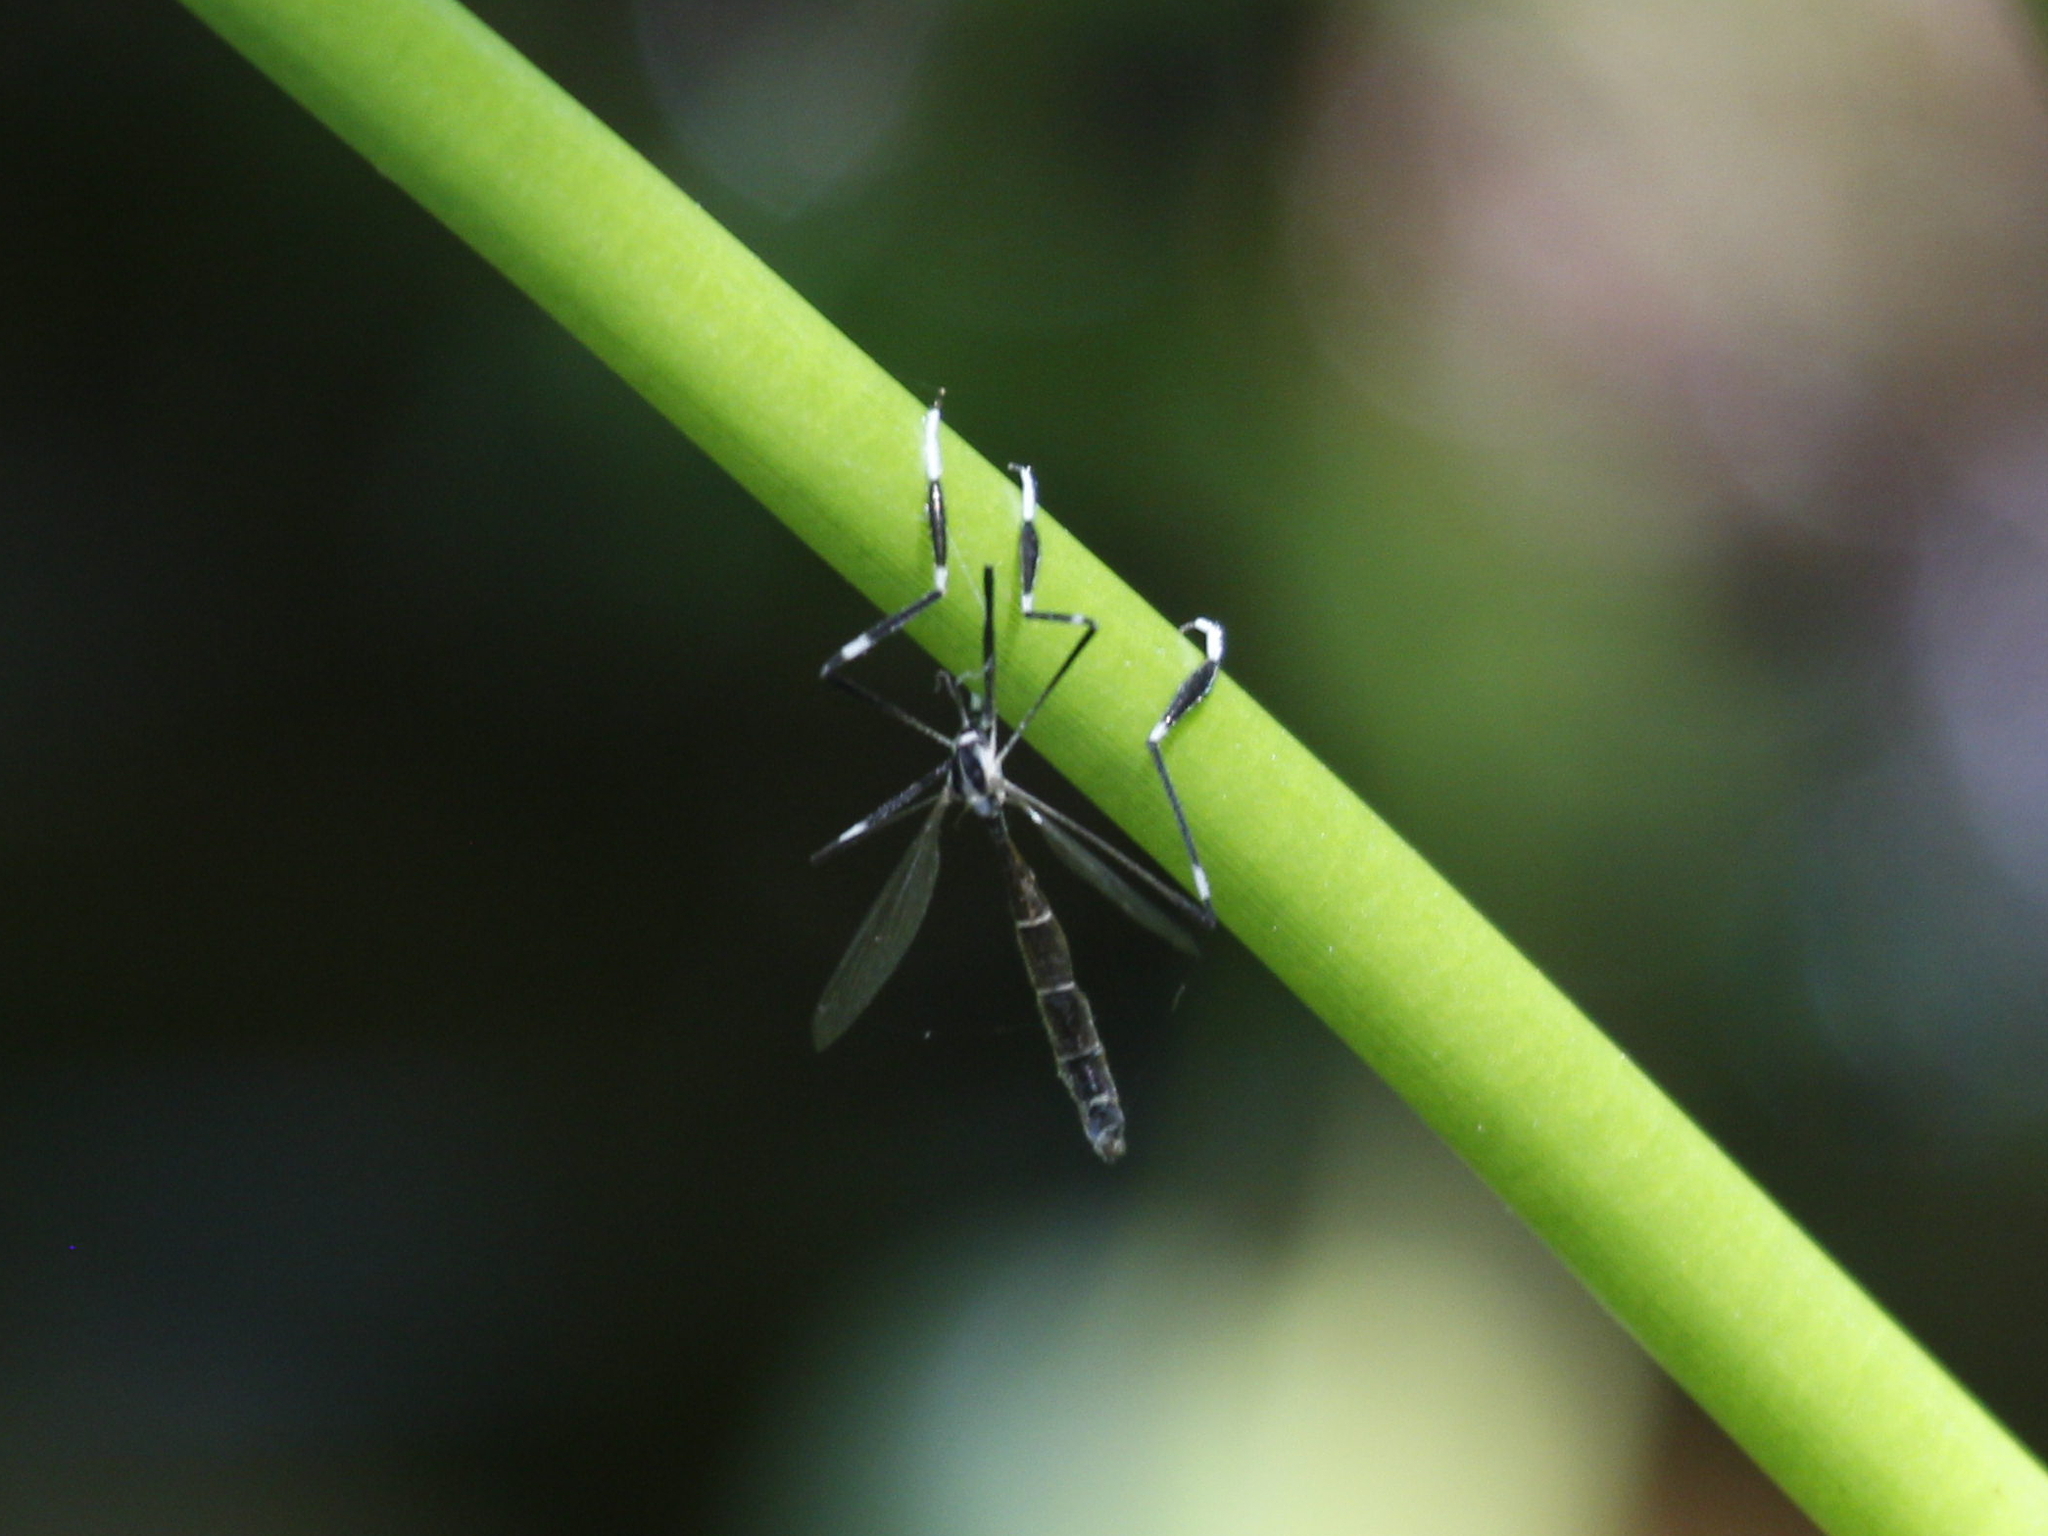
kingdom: Animalia
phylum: Arthropoda
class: Insecta
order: Diptera
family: Ptychopteridae
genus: Bittacomorpha
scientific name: Bittacomorpha clavipes
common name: Eastern phantom crane fly
